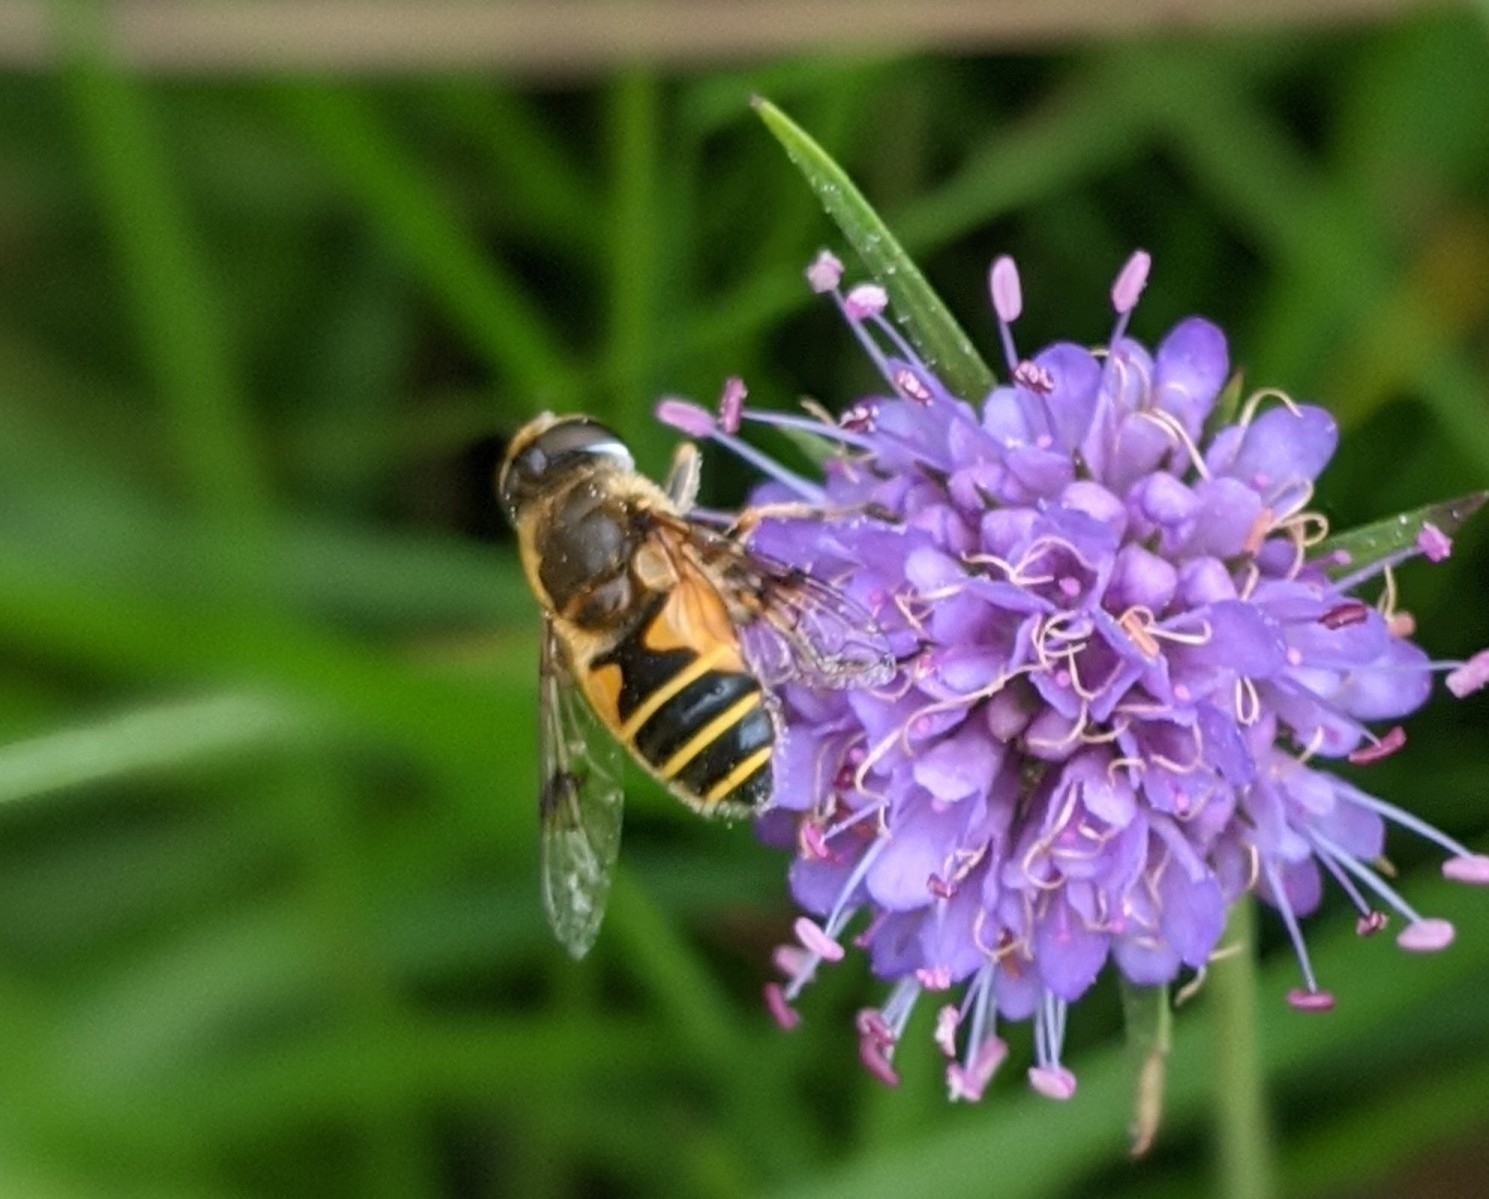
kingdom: Animalia
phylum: Arthropoda
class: Insecta
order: Diptera
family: Syrphidae
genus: Cheilosia
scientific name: Cheilosia morio
